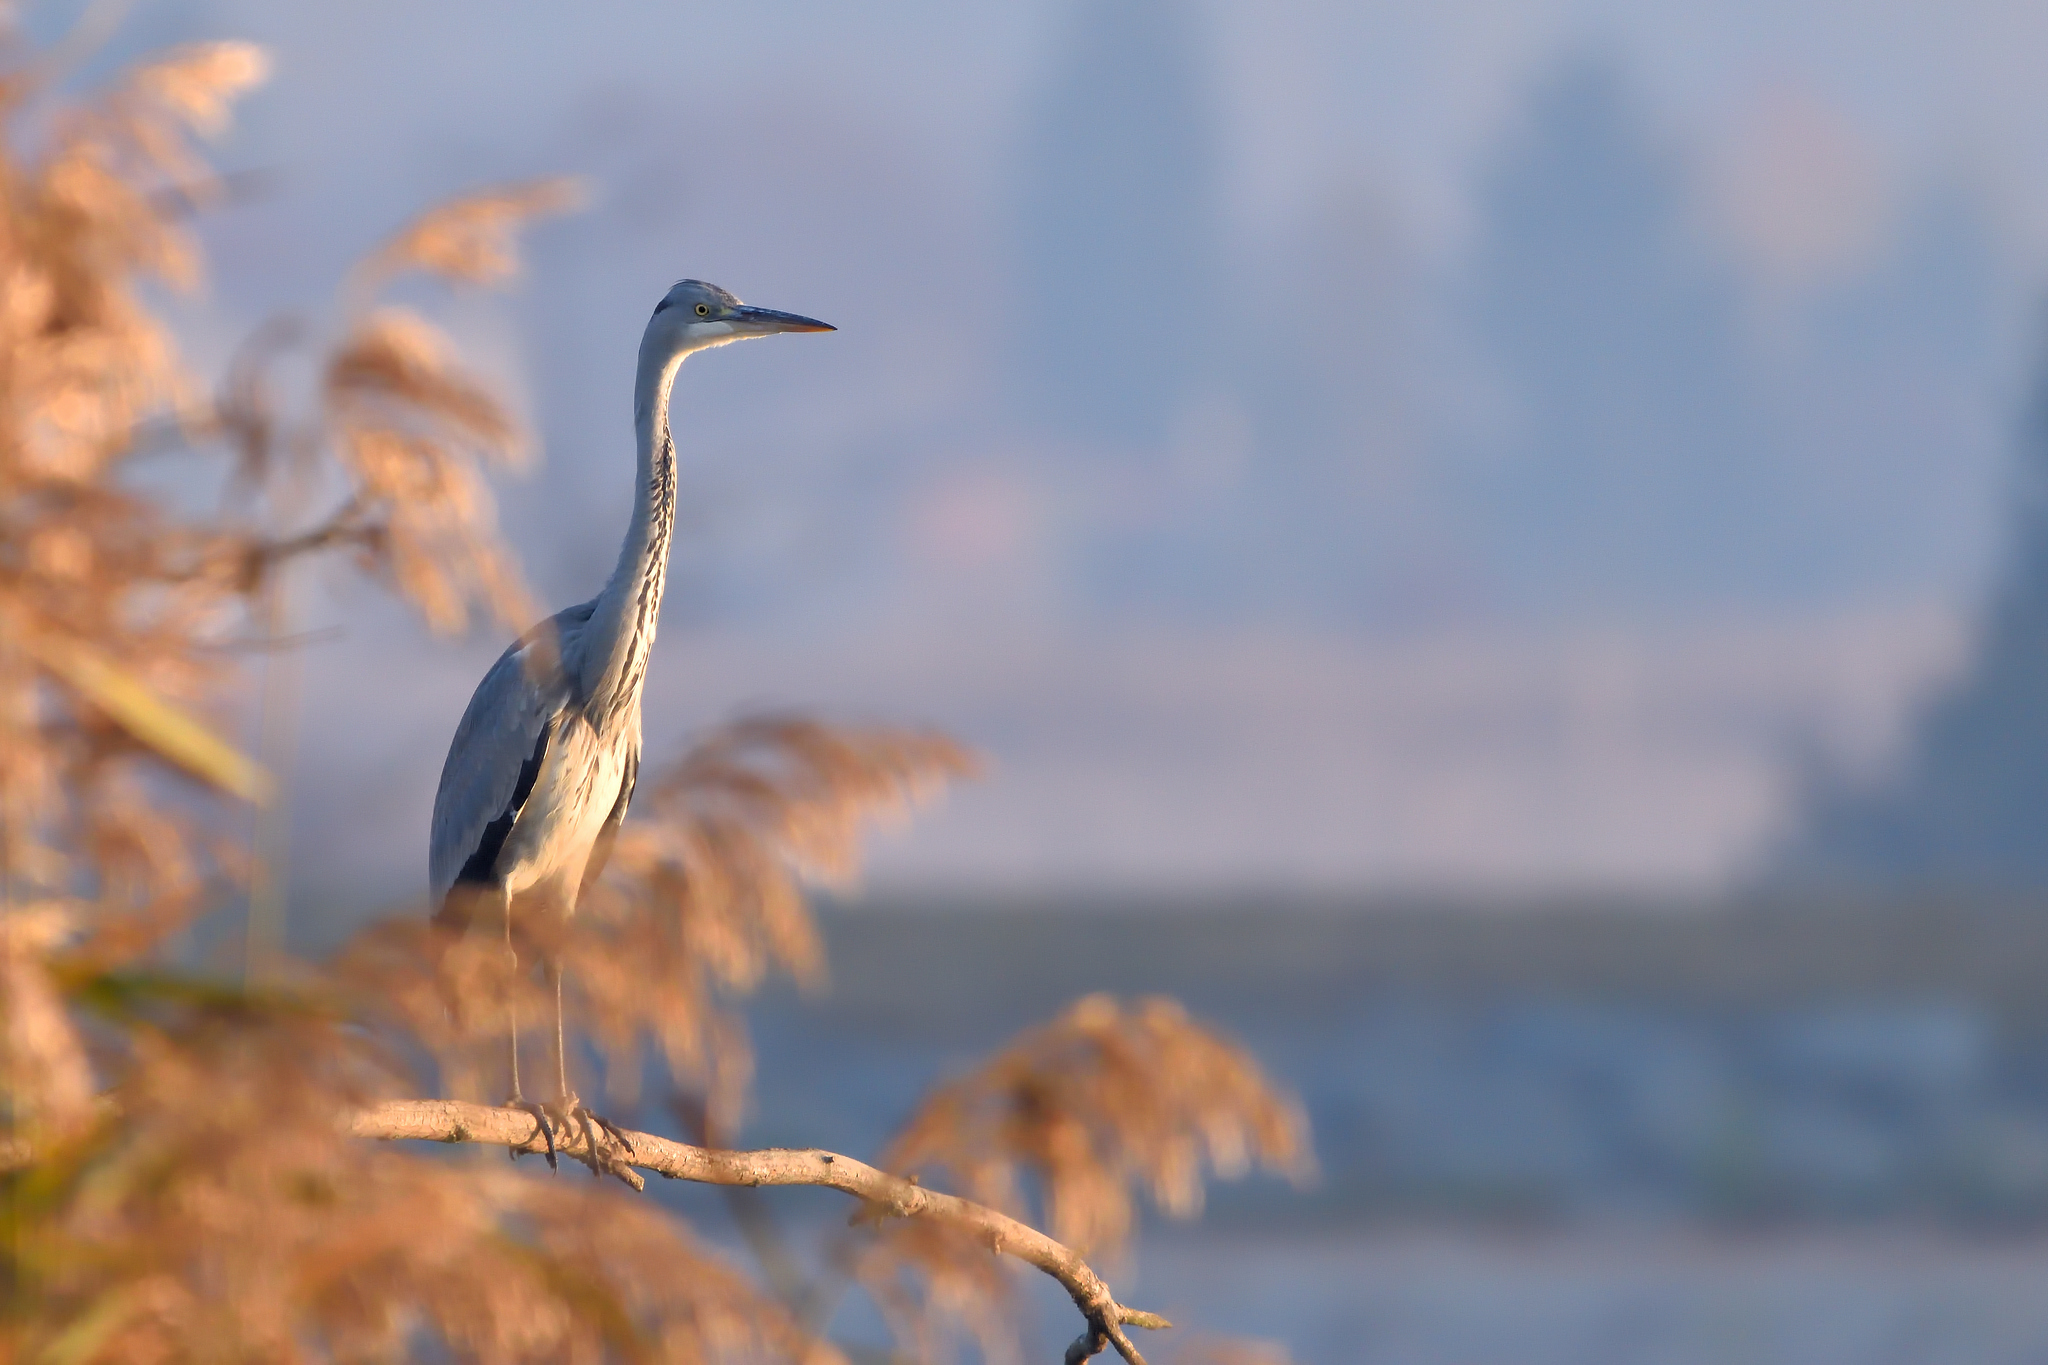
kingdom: Animalia
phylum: Chordata
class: Aves
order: Pelecaniformes
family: Ardeidae
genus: Ardea
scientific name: Ardea cinerea
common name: Grey heron
